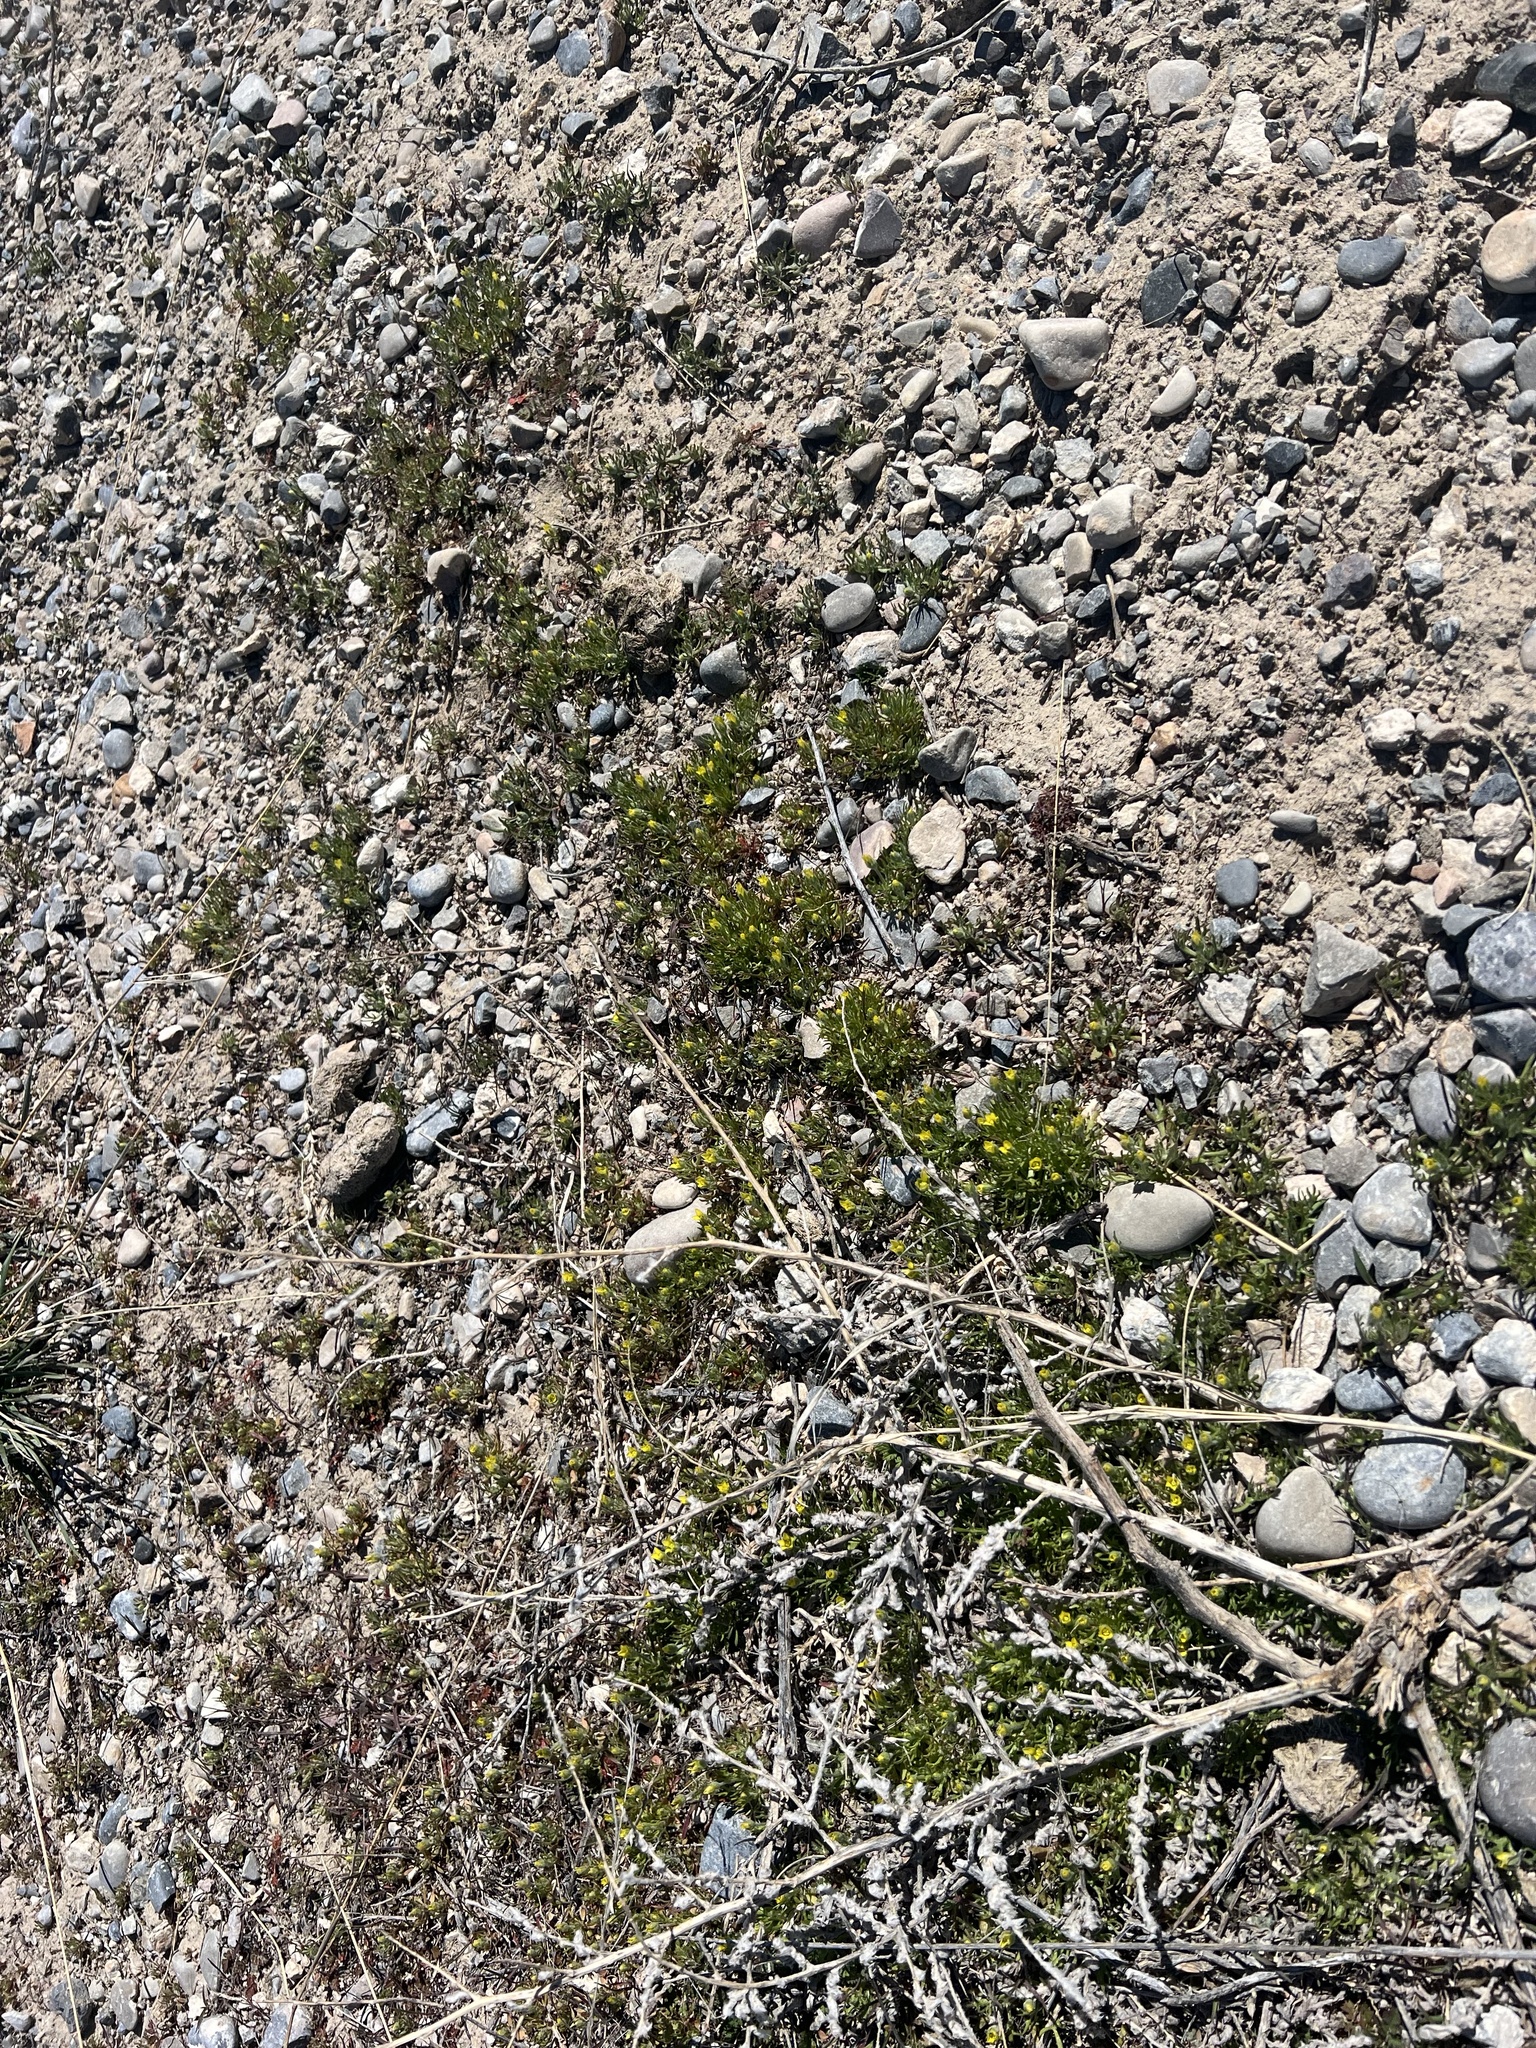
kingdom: Plantae
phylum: Tracheophyta
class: Magnoliopsida
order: Ranunculales
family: Ranunculaceae
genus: Ceratocephala
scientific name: Ceratocephala orthoceras
